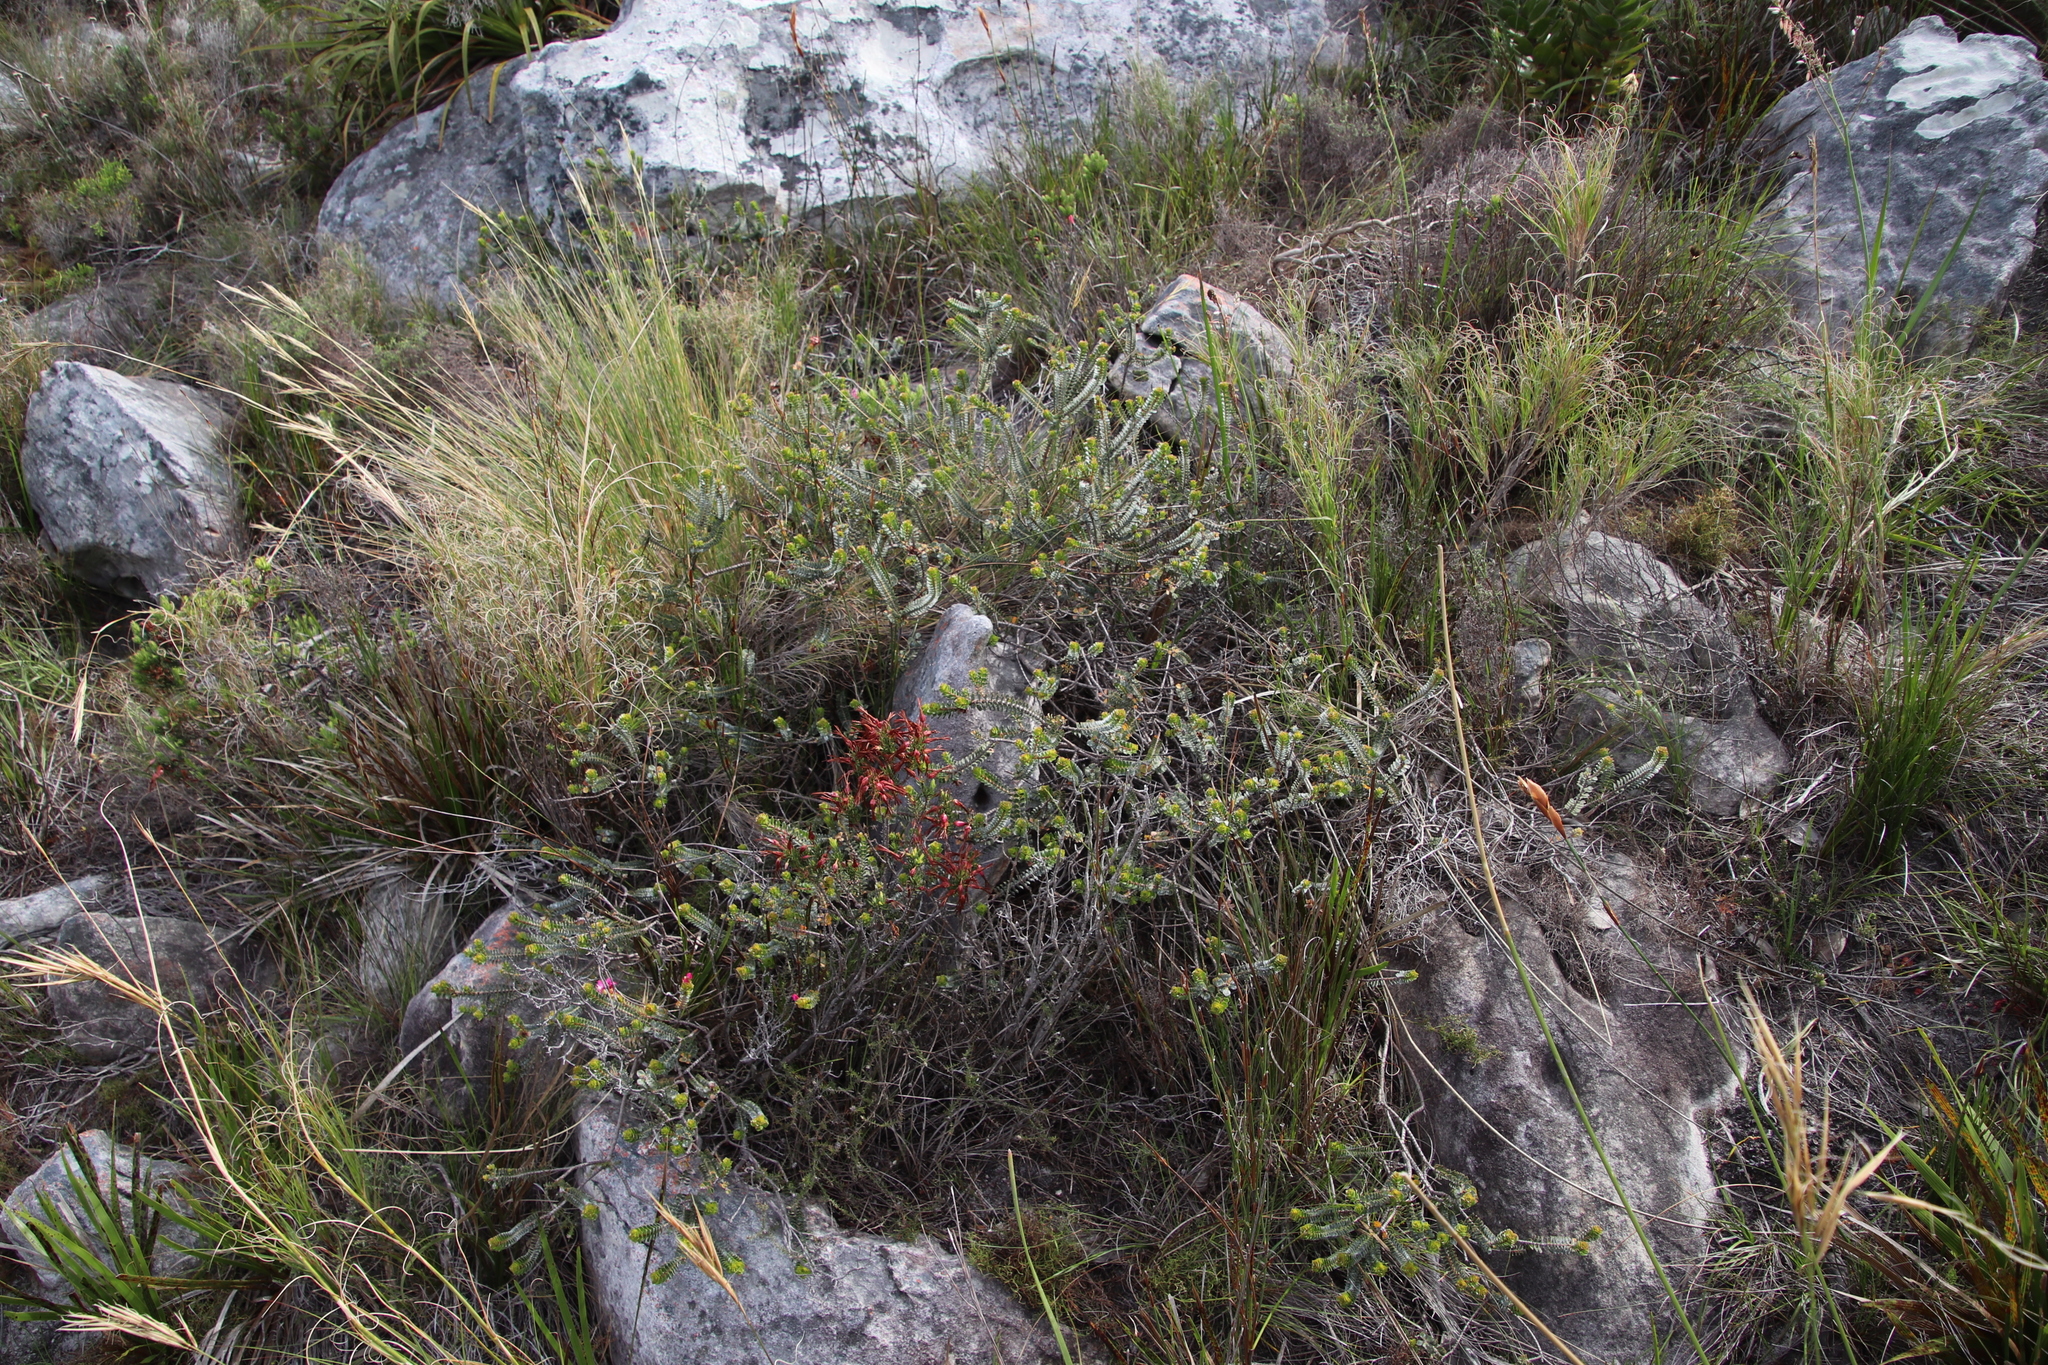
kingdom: Plantae
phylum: Tracheophyta
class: Magnoliopsida
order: Myrtales
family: Penaeaceae
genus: Saltera
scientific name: Saltera sarcocolla
